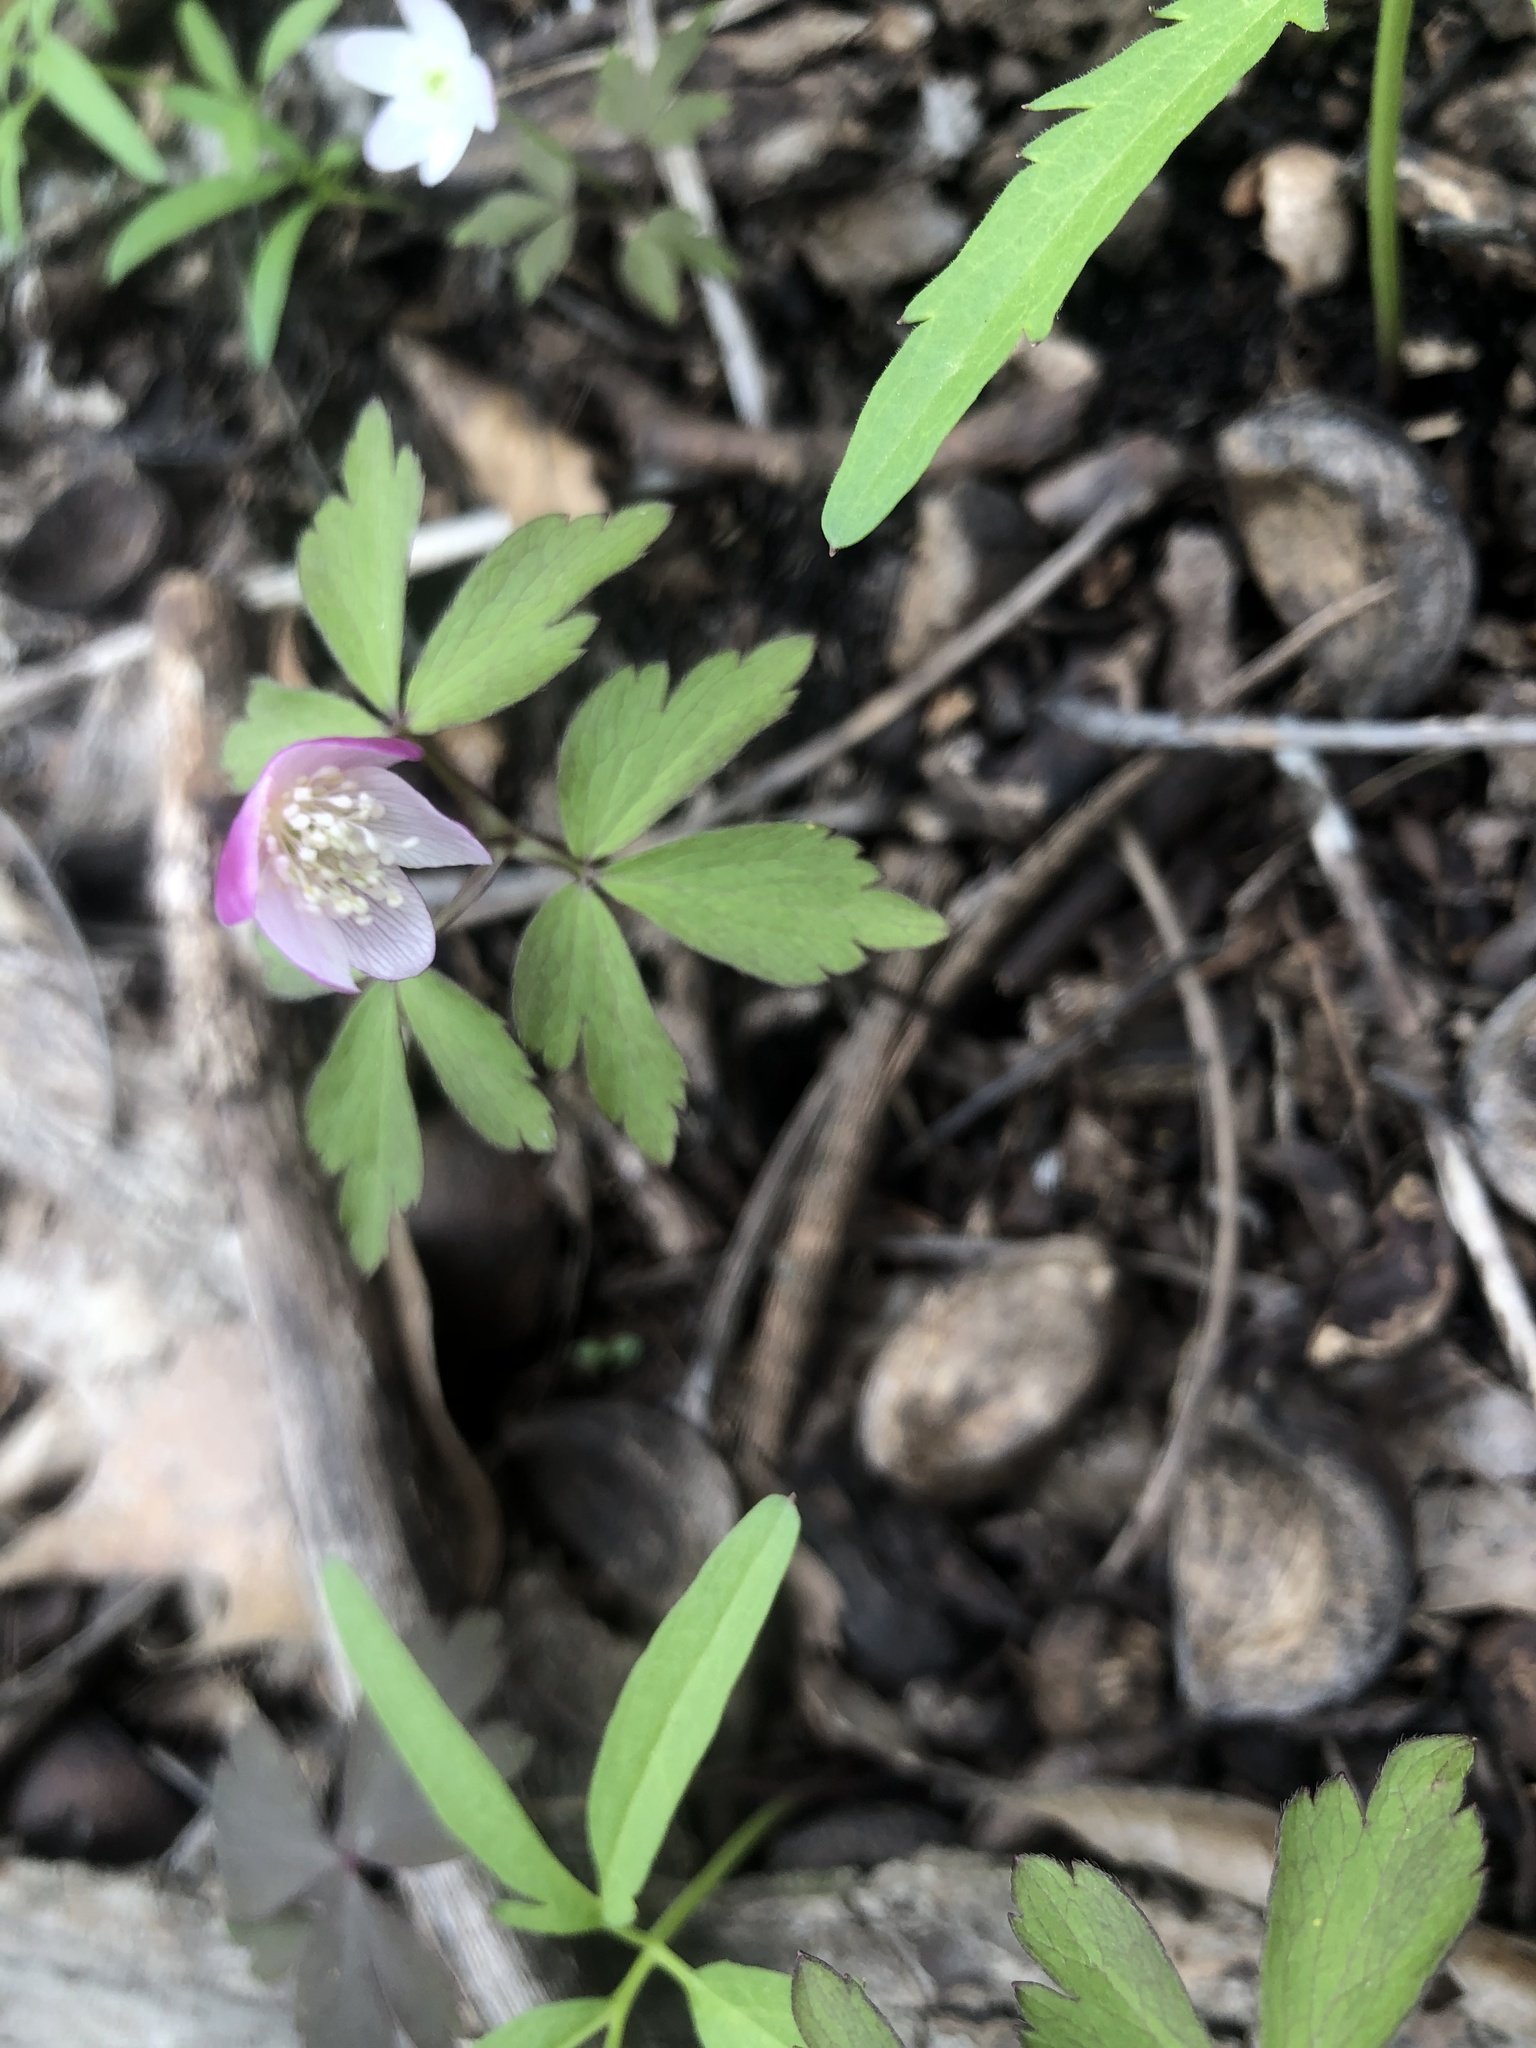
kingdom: Plantae
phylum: Tracheophyta
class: Magnoliopsida
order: Ranunculales
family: Ranunculaceae
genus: Anemone
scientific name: Anemone quinquefolia
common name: Wood anemone
